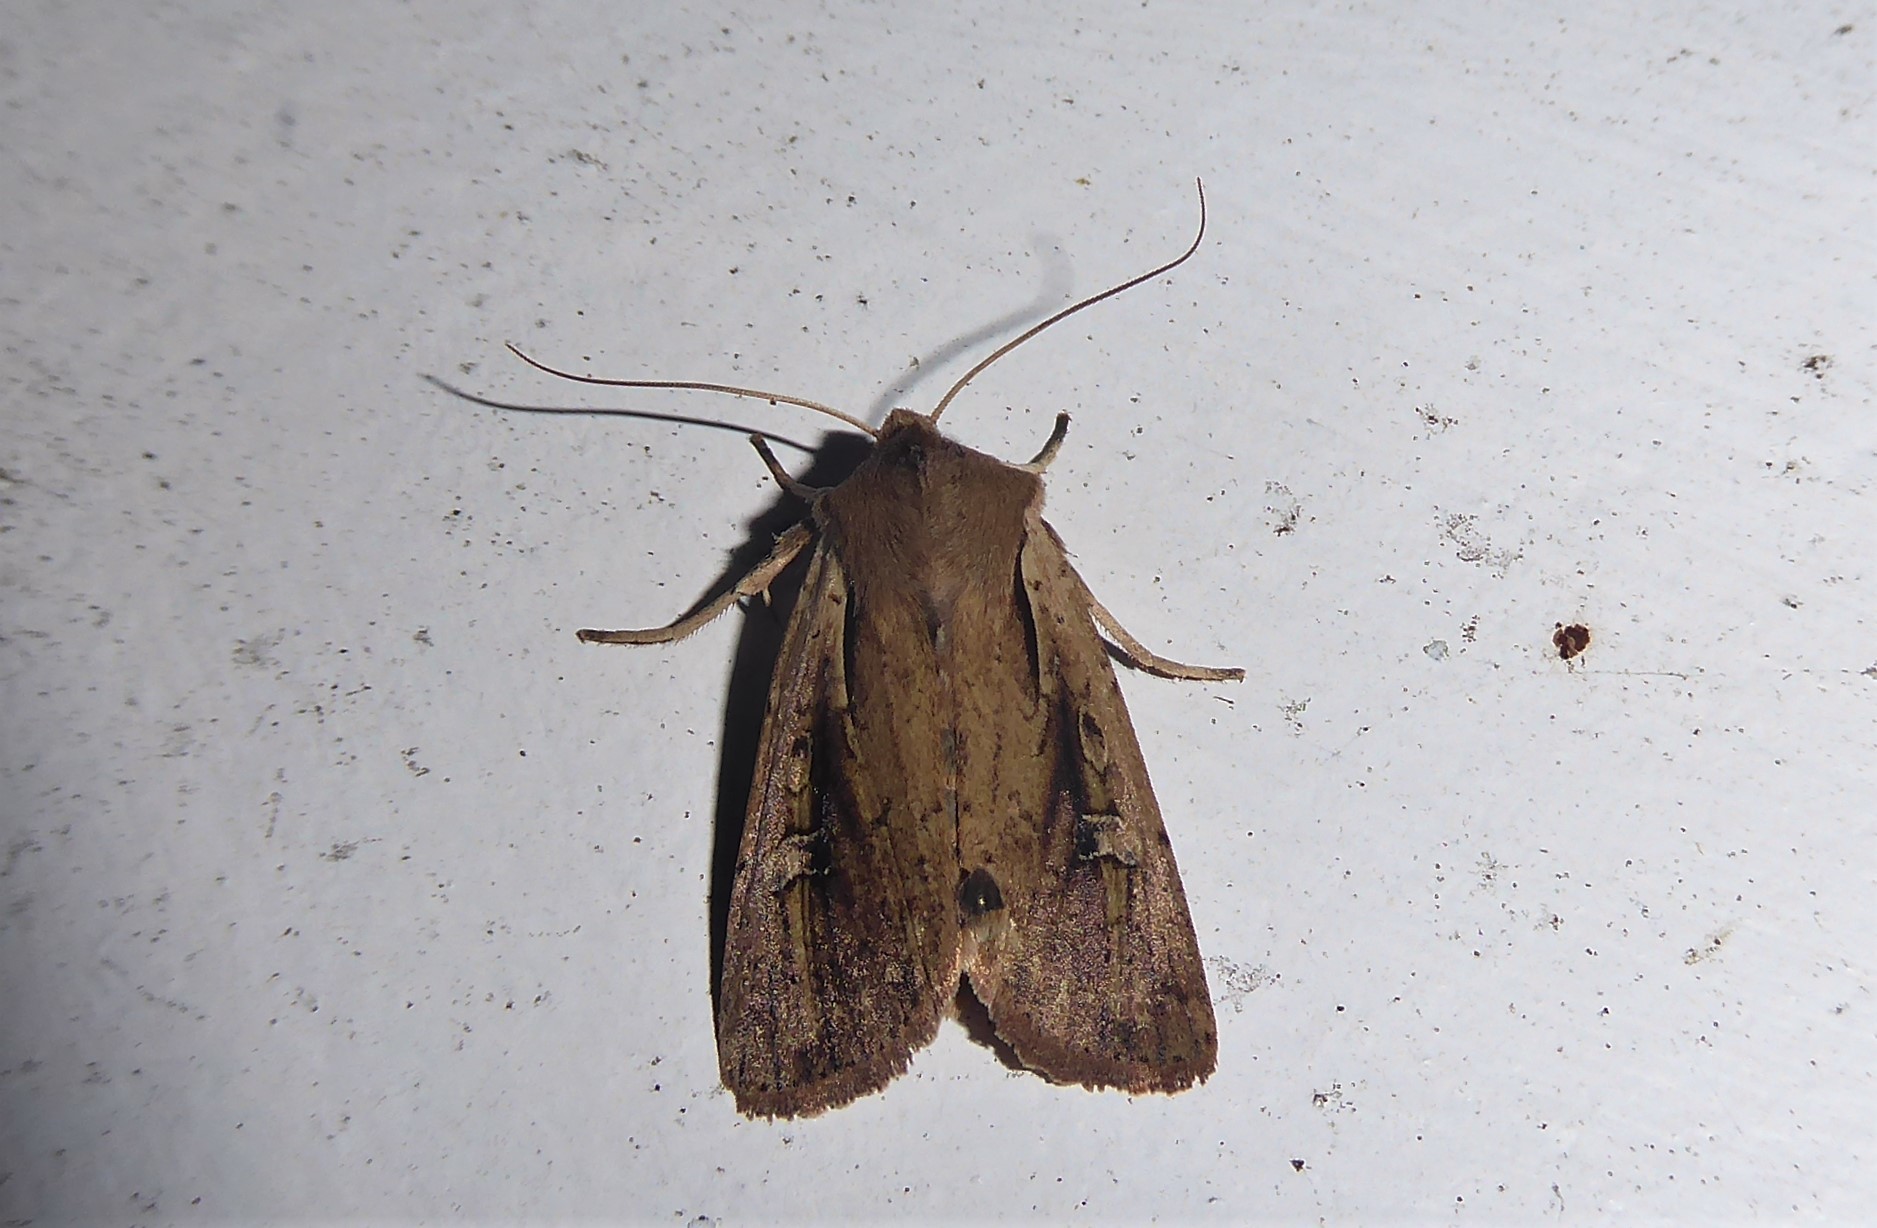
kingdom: Animalia
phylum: Arthropoda
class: Insecta
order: Lepidoptera
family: Noctuidae
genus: Ichneutica
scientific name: Ichneutica atristriga
